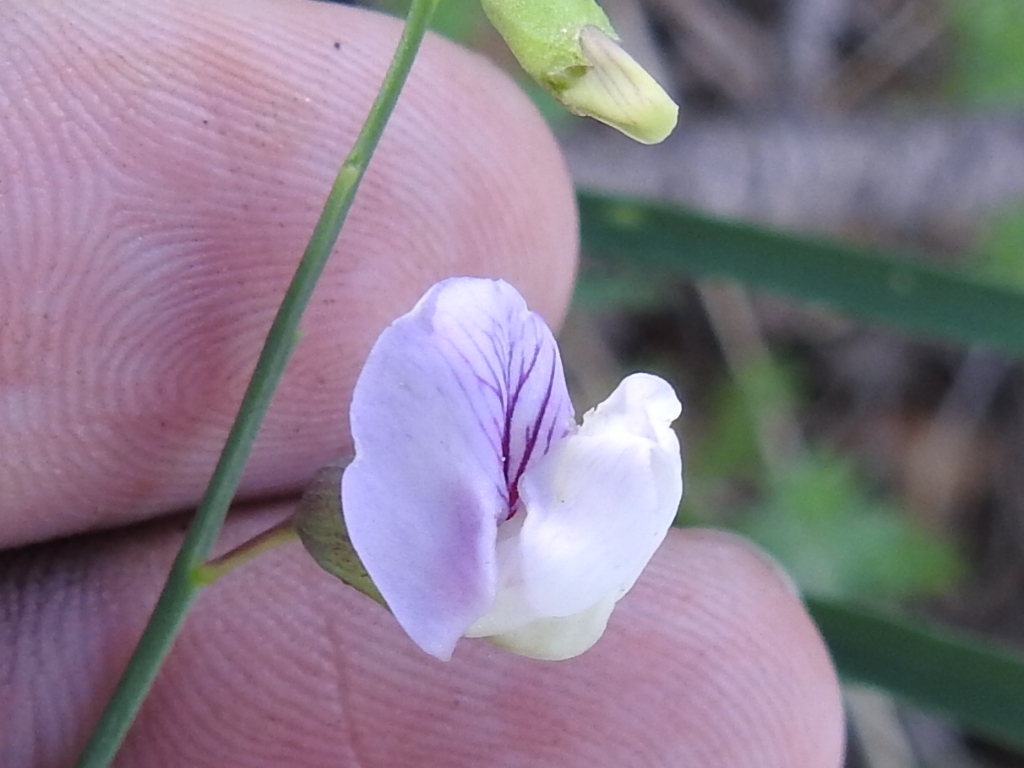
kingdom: Plantae
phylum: Tracheophyta
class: Magnoliopsida
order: Fabales
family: Fabaceae
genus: Lathyrus
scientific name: Lathyrus graminifolius
